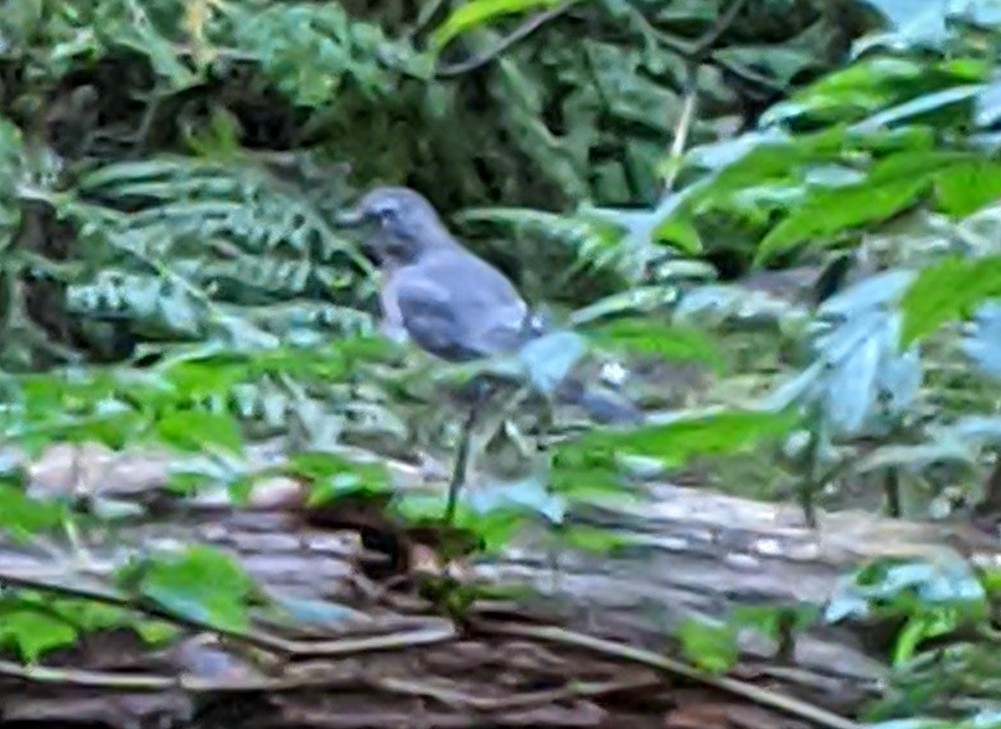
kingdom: Animalia
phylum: Chordata
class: Aves
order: Passeriformes
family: Turdidae
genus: Turdus
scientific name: Turdus migratorius
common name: American robin
